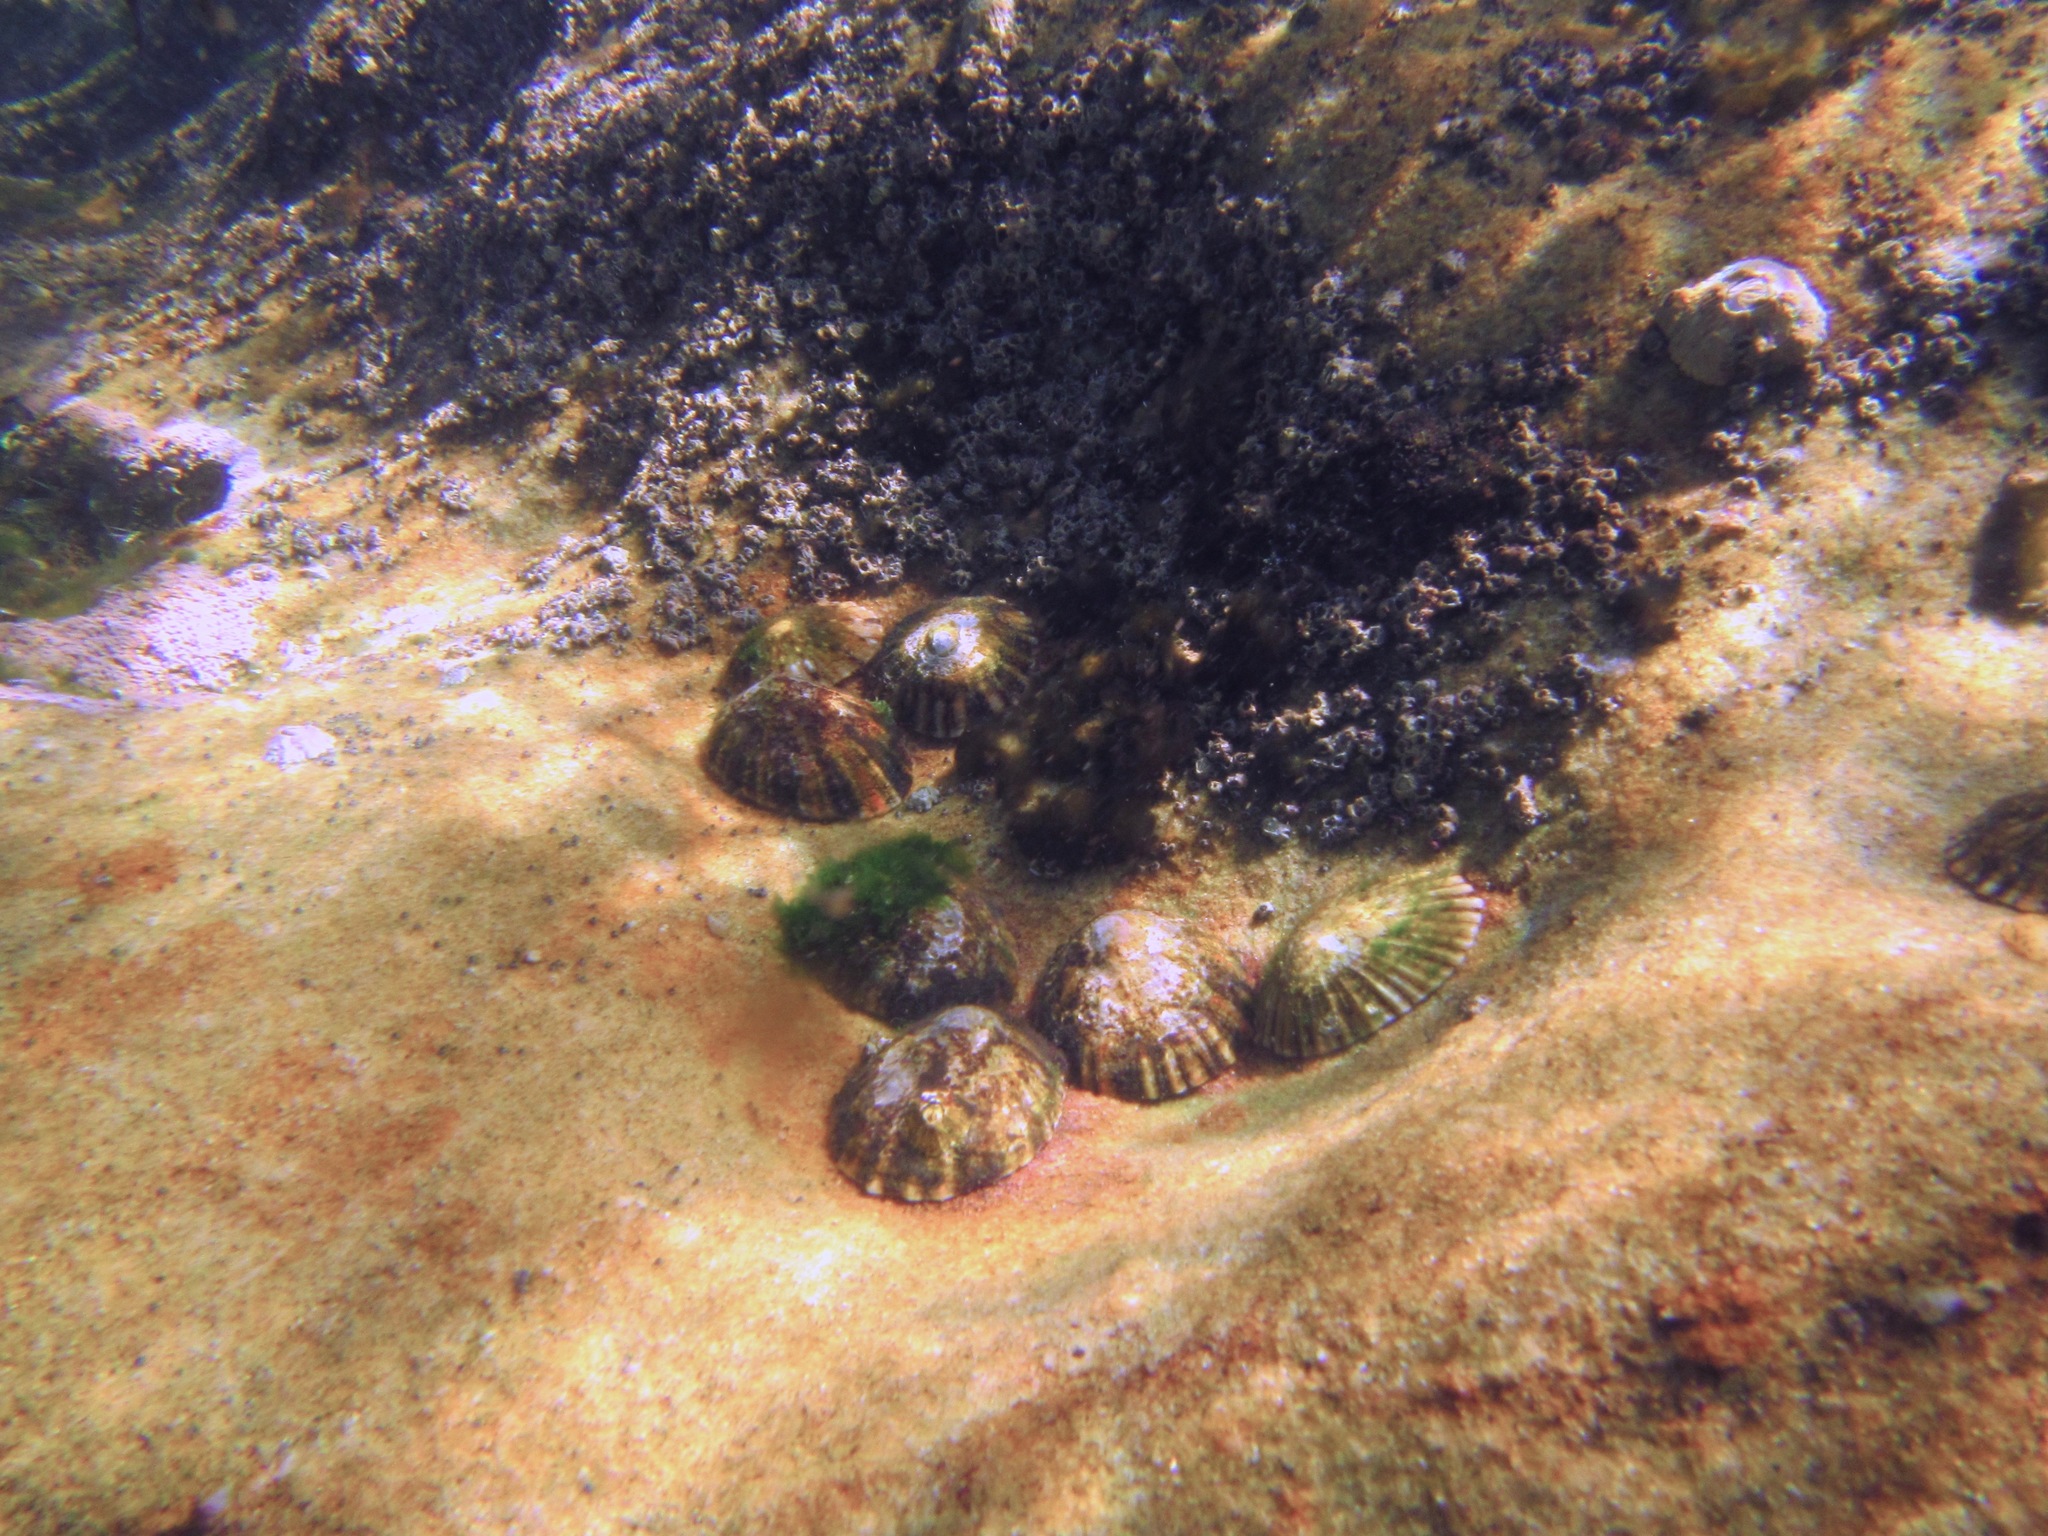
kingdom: Animalia
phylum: Mollusca
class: Gastropoda
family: Nacellidae
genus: Cellana
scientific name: Cellana tramoserica
